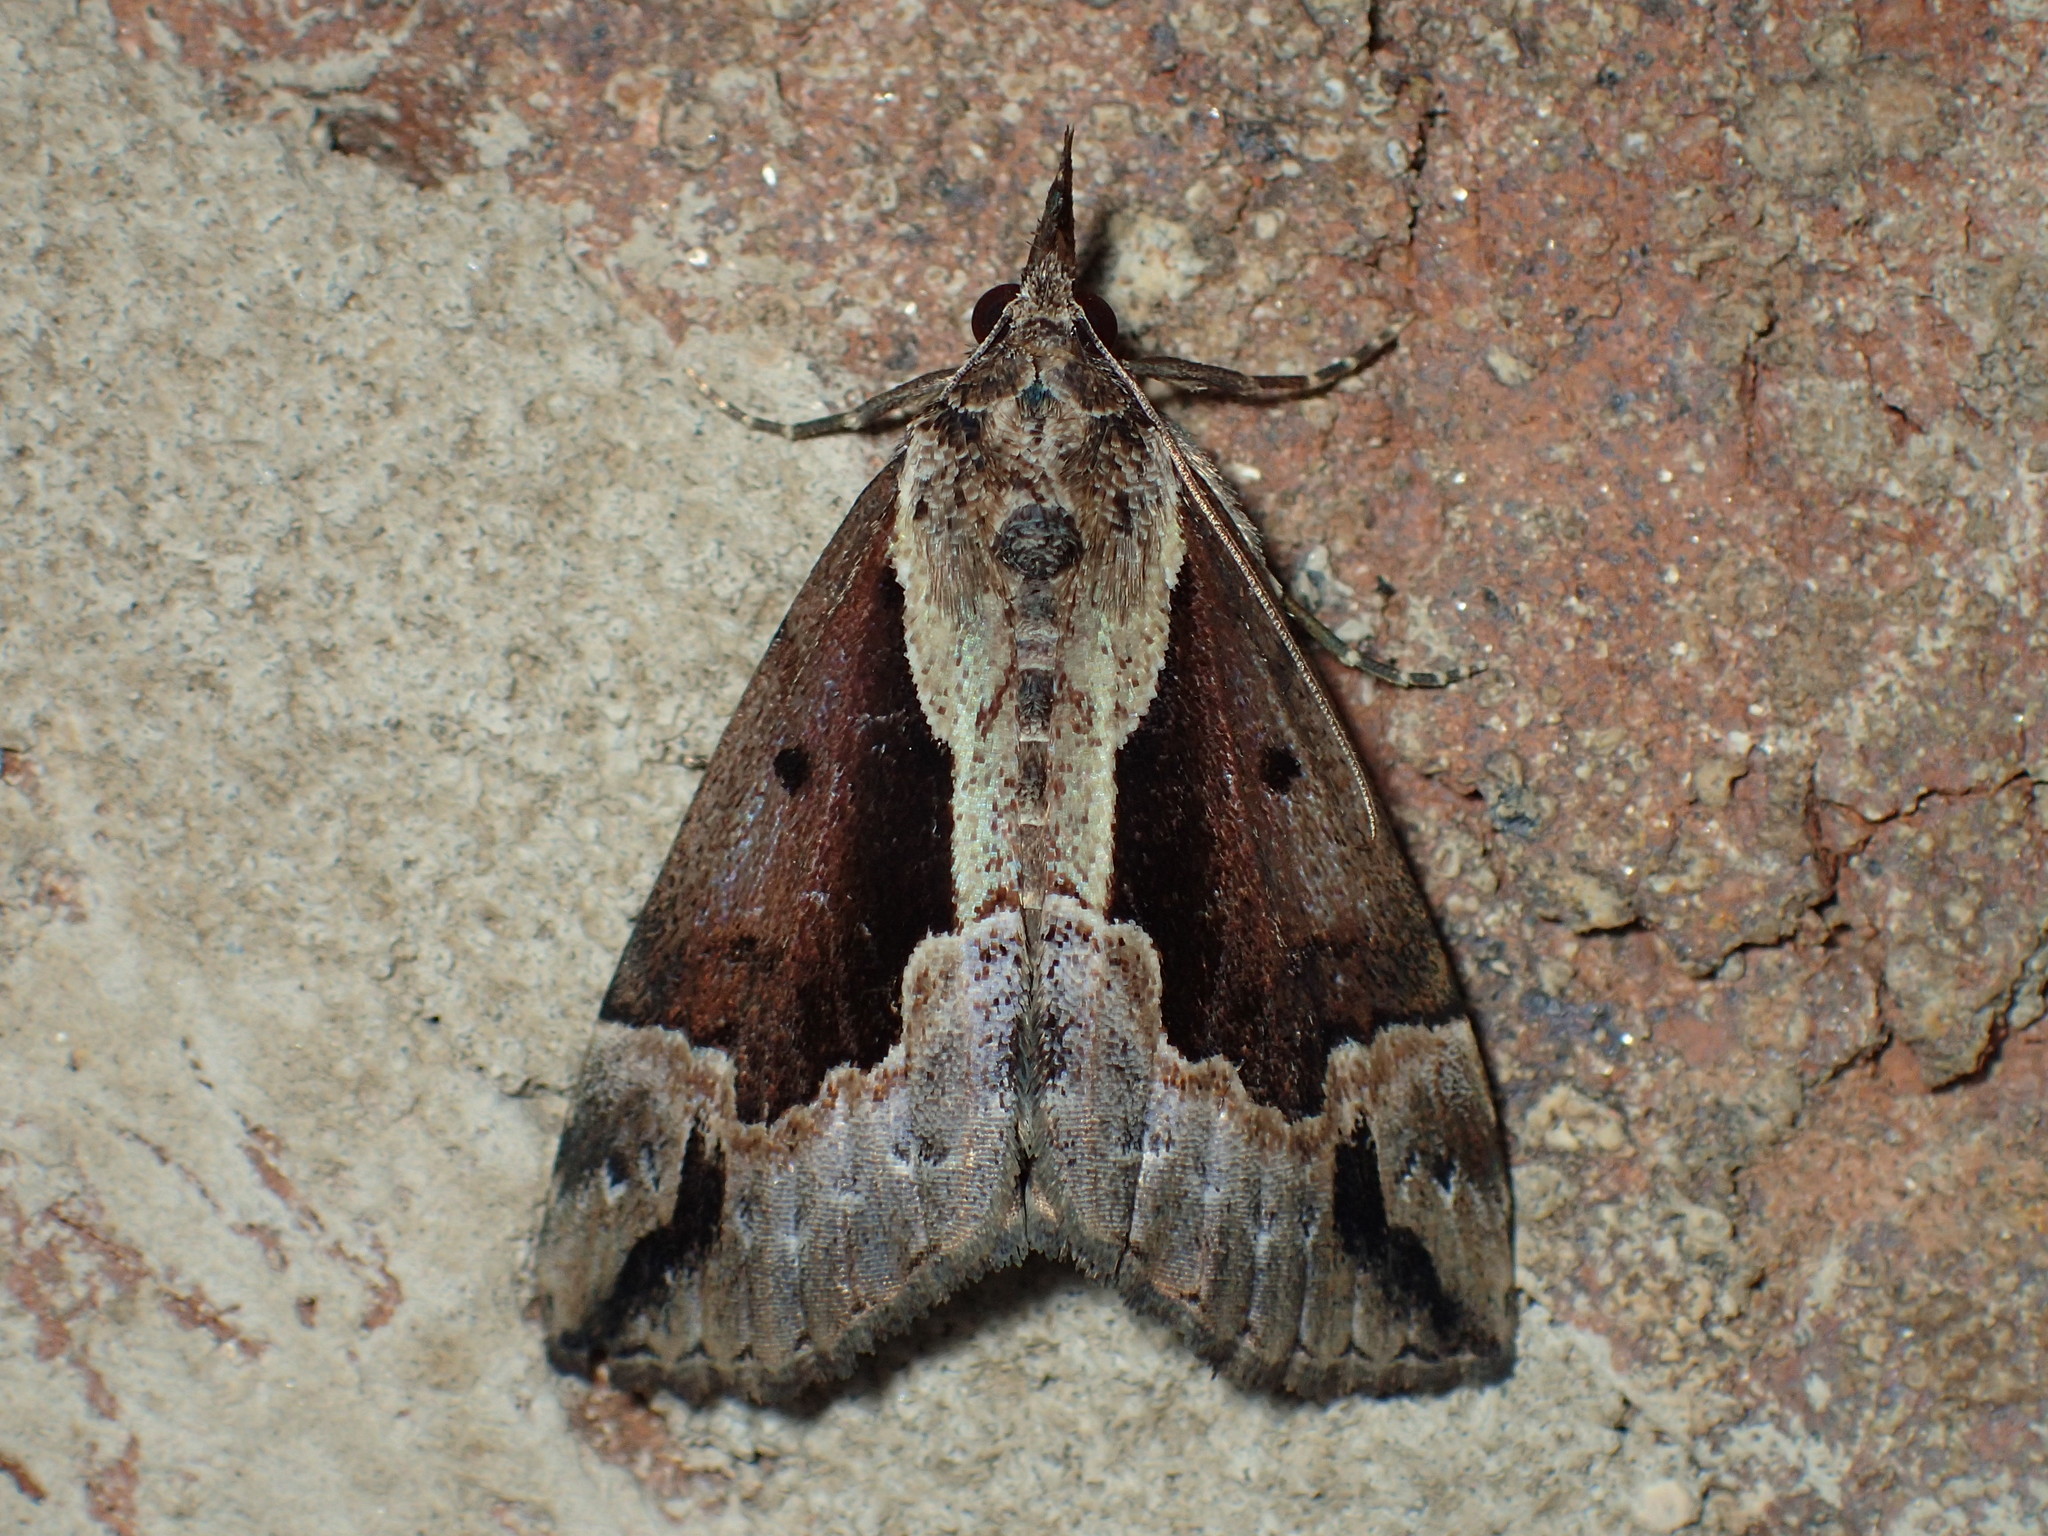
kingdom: Animalia
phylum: Arthropoda
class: Insecta
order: Lepidoptera
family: Erebidae
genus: Hypena
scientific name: Hypena baltimoralis
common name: Baltimore snout
